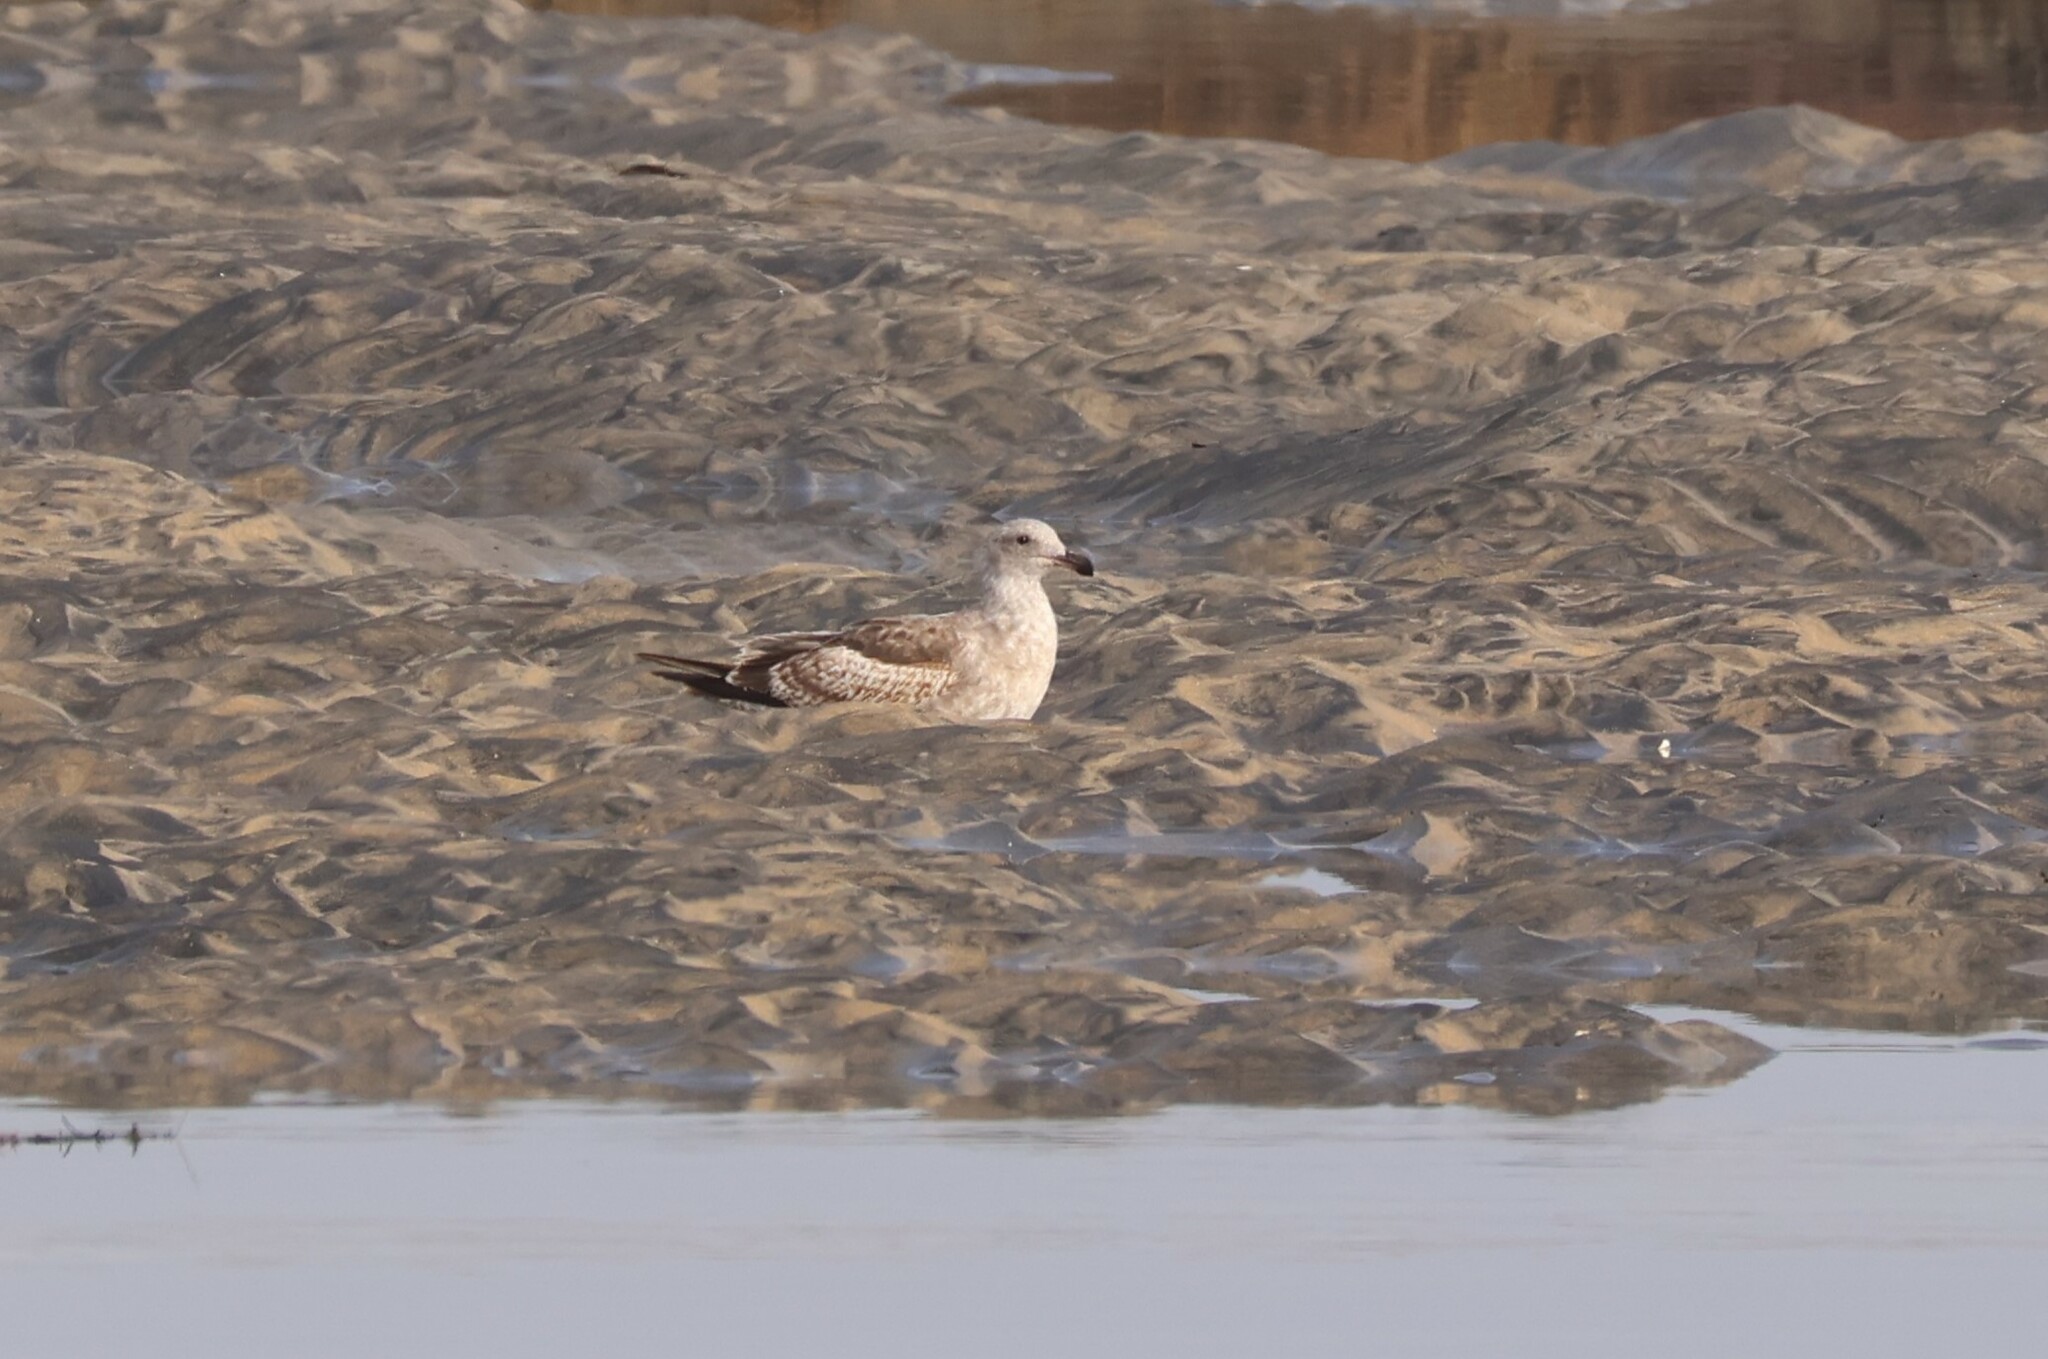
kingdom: Animalia
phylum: Chordata
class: Aves
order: Charadriiformes
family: Laridae
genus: Larus
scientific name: Larus occidentalis
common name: Western gull
